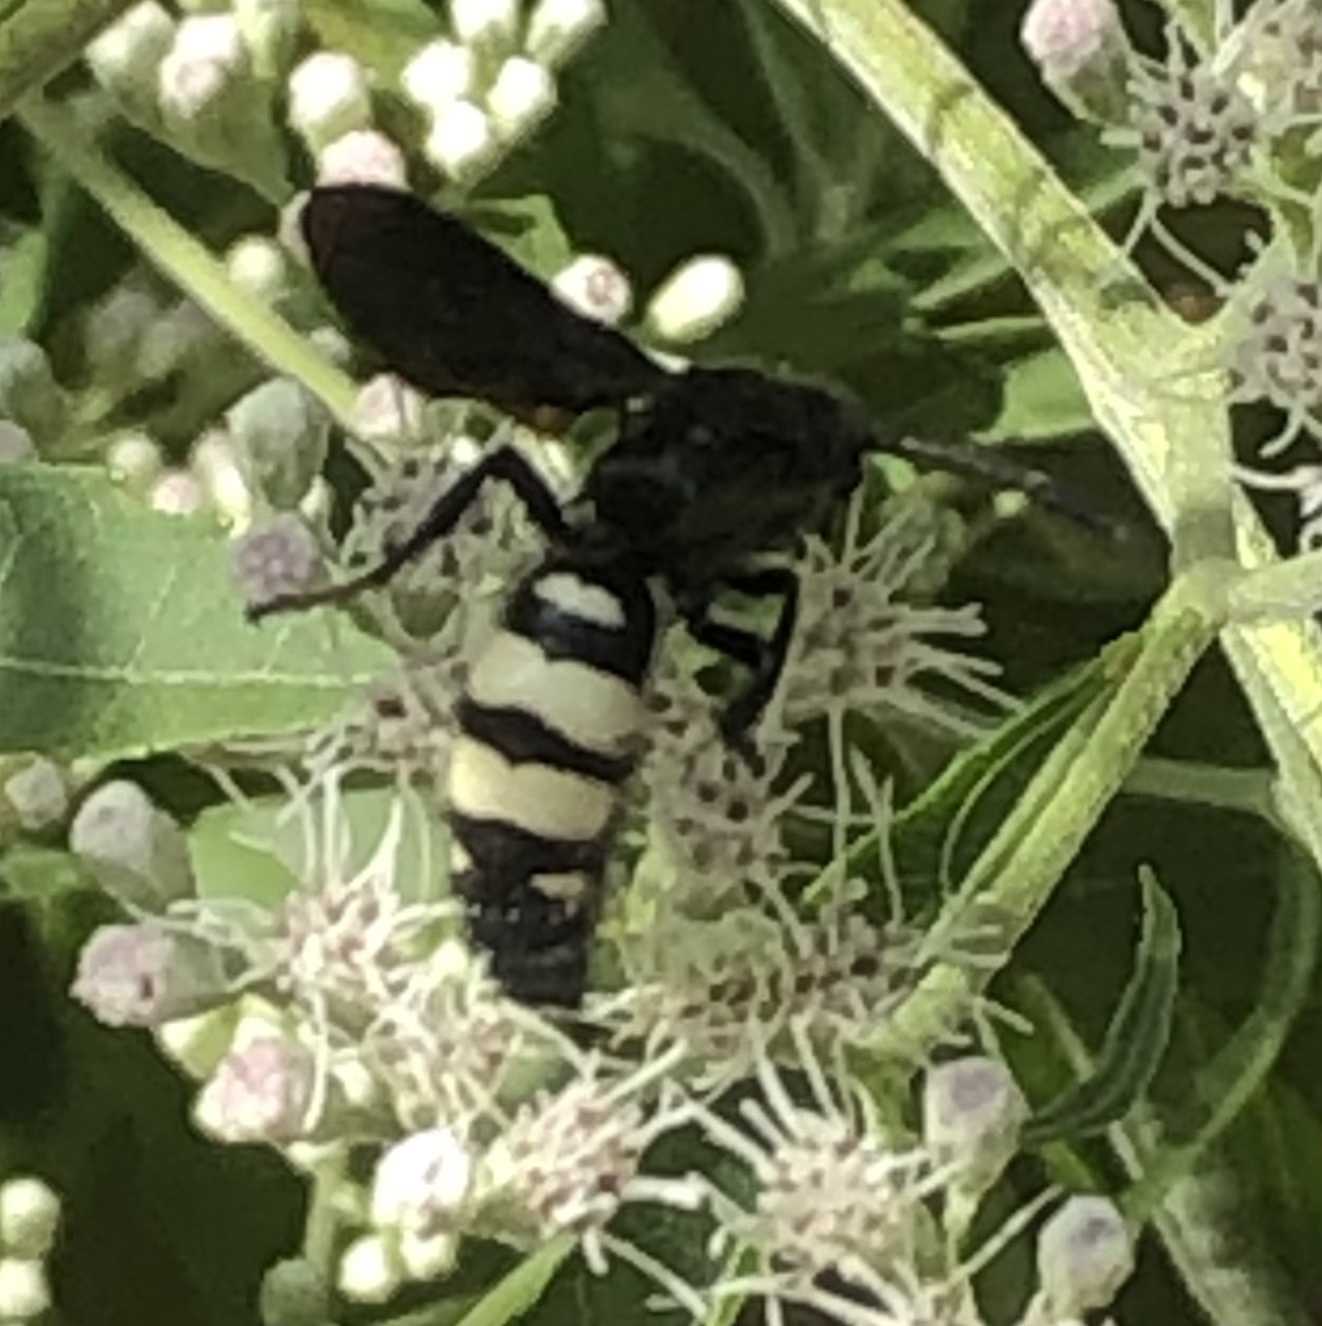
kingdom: Animalia
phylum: Arthropoda
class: Insecta
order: Hymenoptera
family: Scoliidae
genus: Scolia
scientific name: Scolia bicincta
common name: Double-banded scoliid wasp
